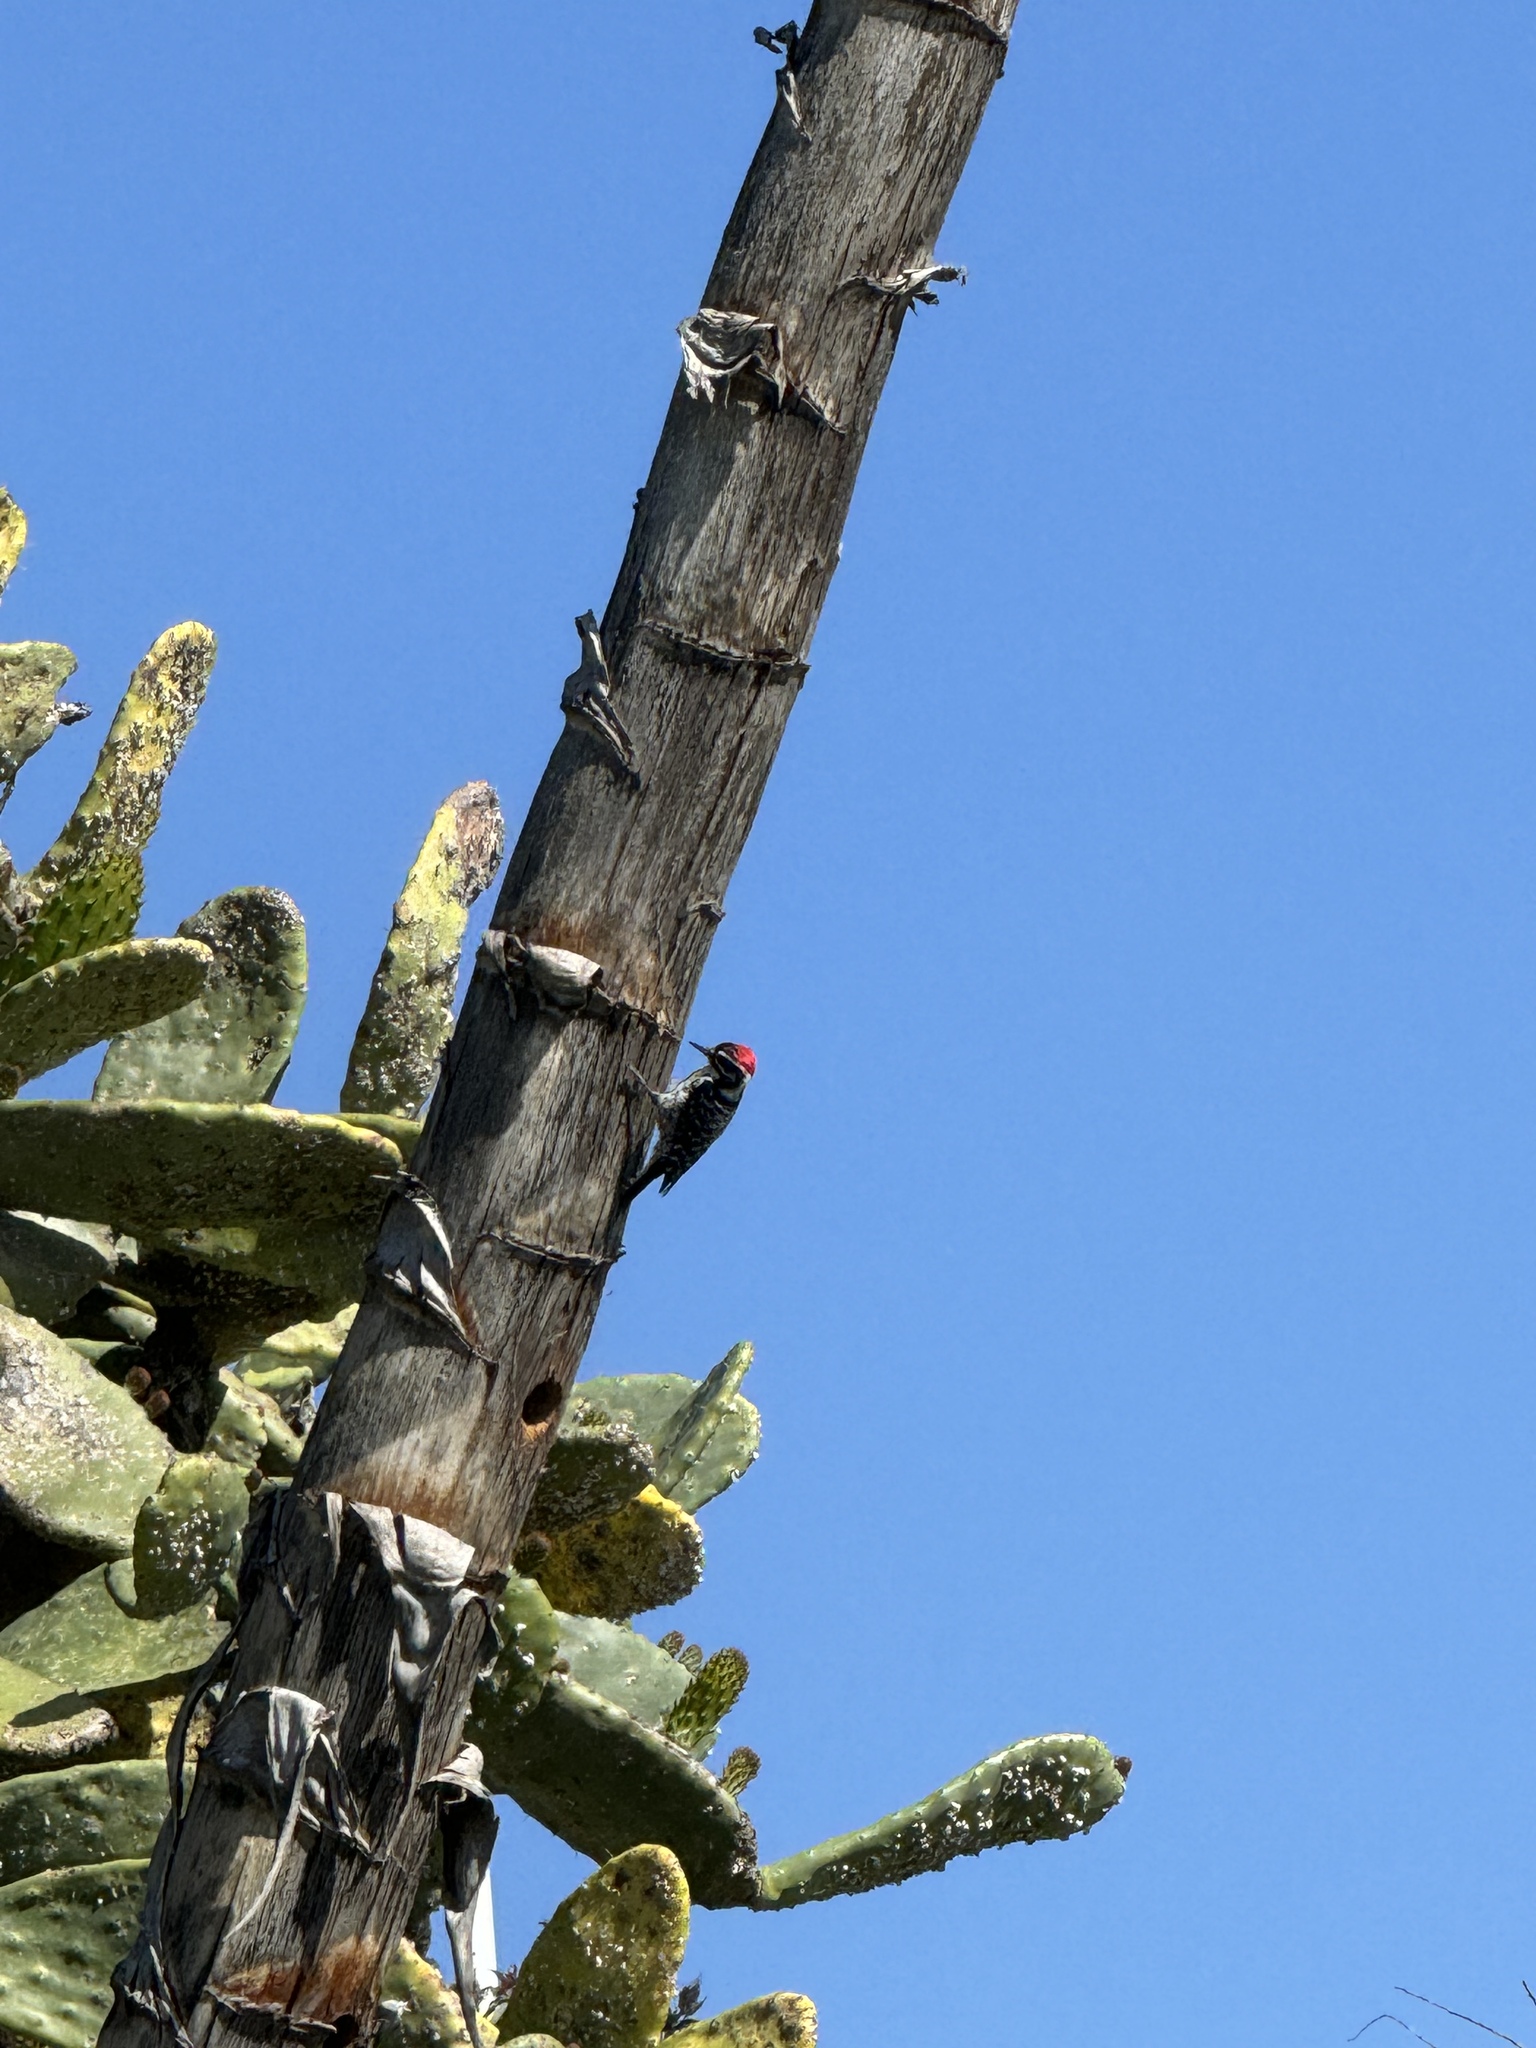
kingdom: Animalia
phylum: Chordata
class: Aves
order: Piciformes
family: Picidae
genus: Dryobates
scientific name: Dryobates nuttallii
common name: Nuttall's woodpecker
